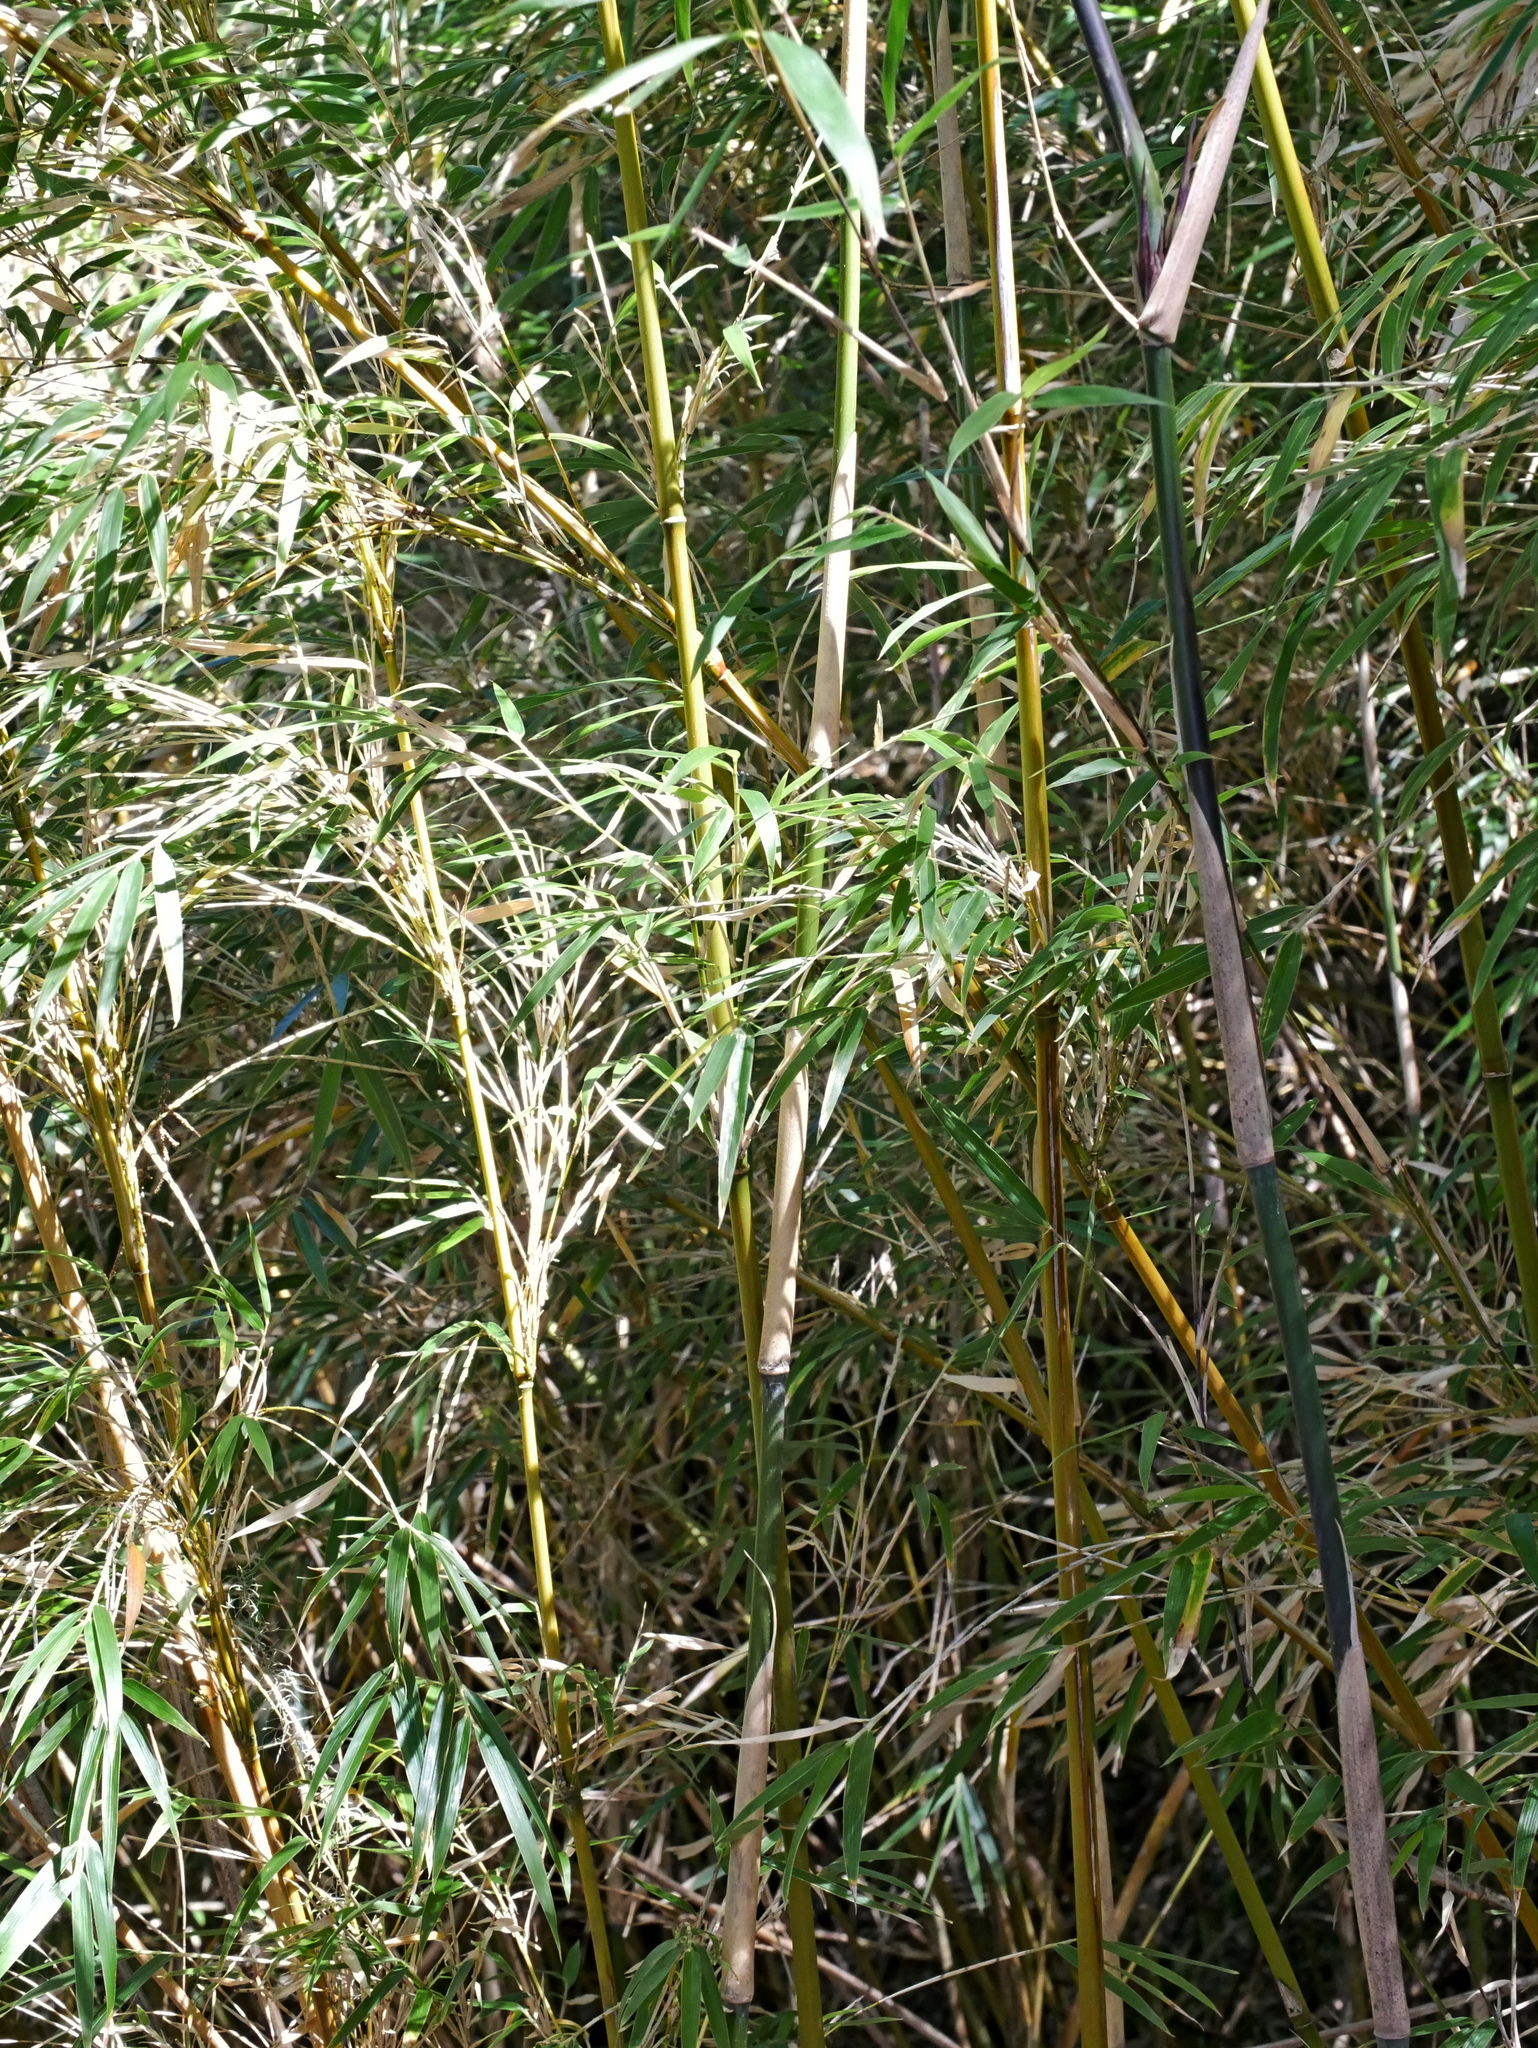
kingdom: Plantae
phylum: Tracheophyta
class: Liliopsida
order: Poales
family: Poaceae
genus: Yushania
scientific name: Yushania niitakayamensis
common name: Yushan cane
